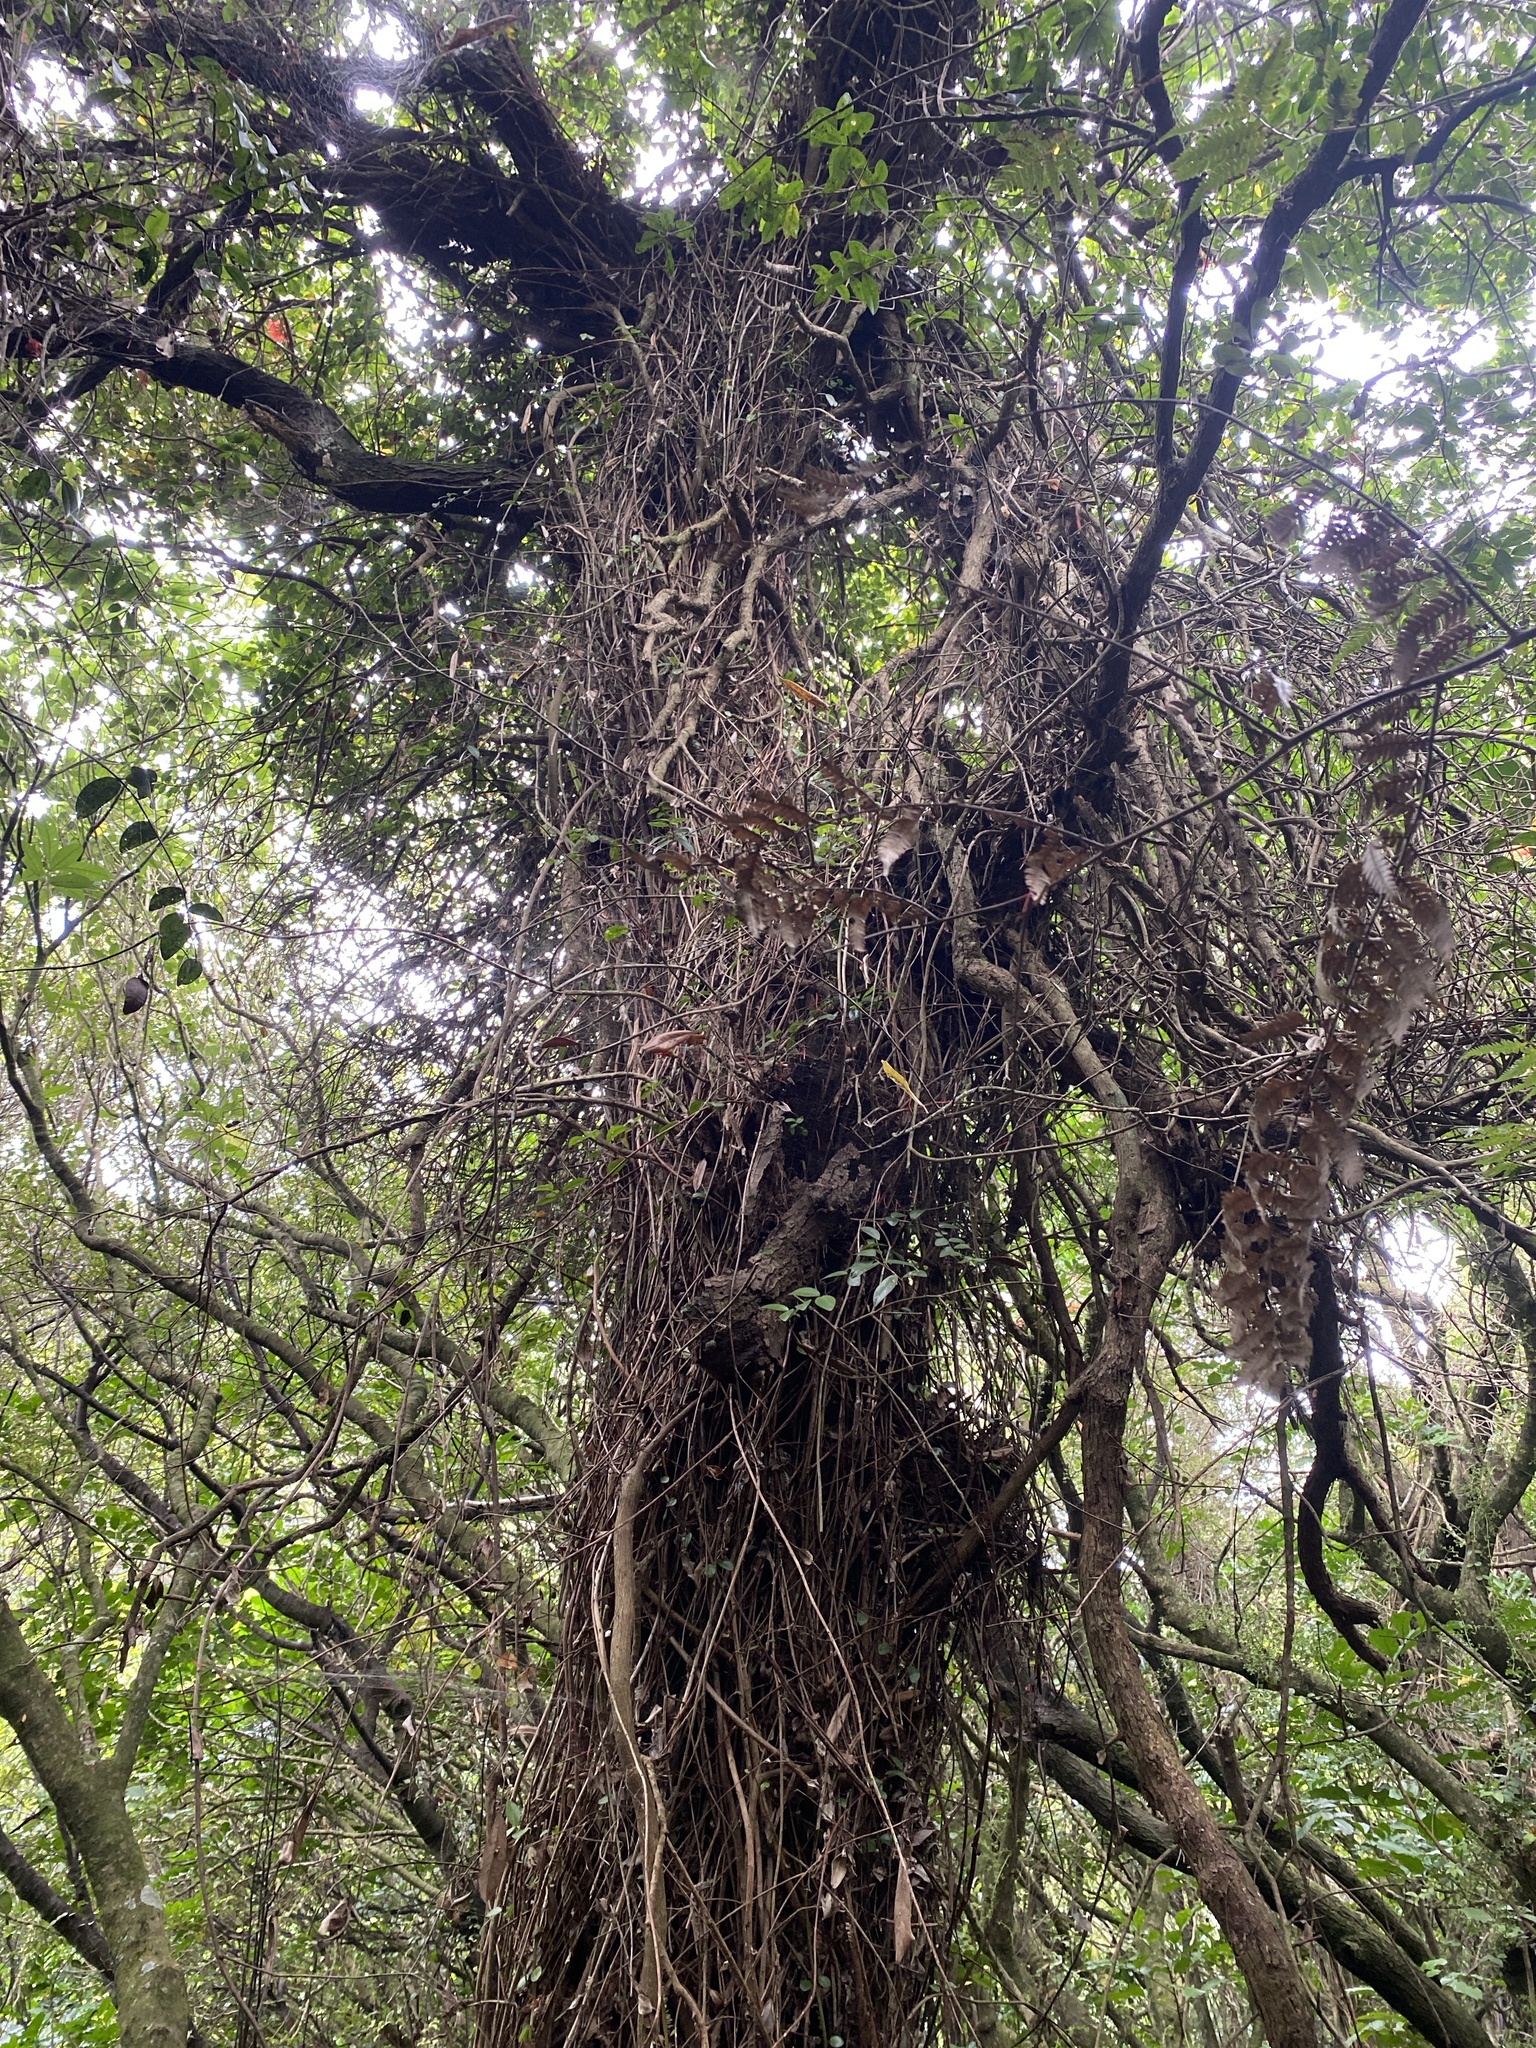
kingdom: Plantae
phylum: Tracheophyta
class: Magnoliopsida
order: Myrtales
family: Myrtaceae
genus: Metrosideros
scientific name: Metrosideros fulgens
